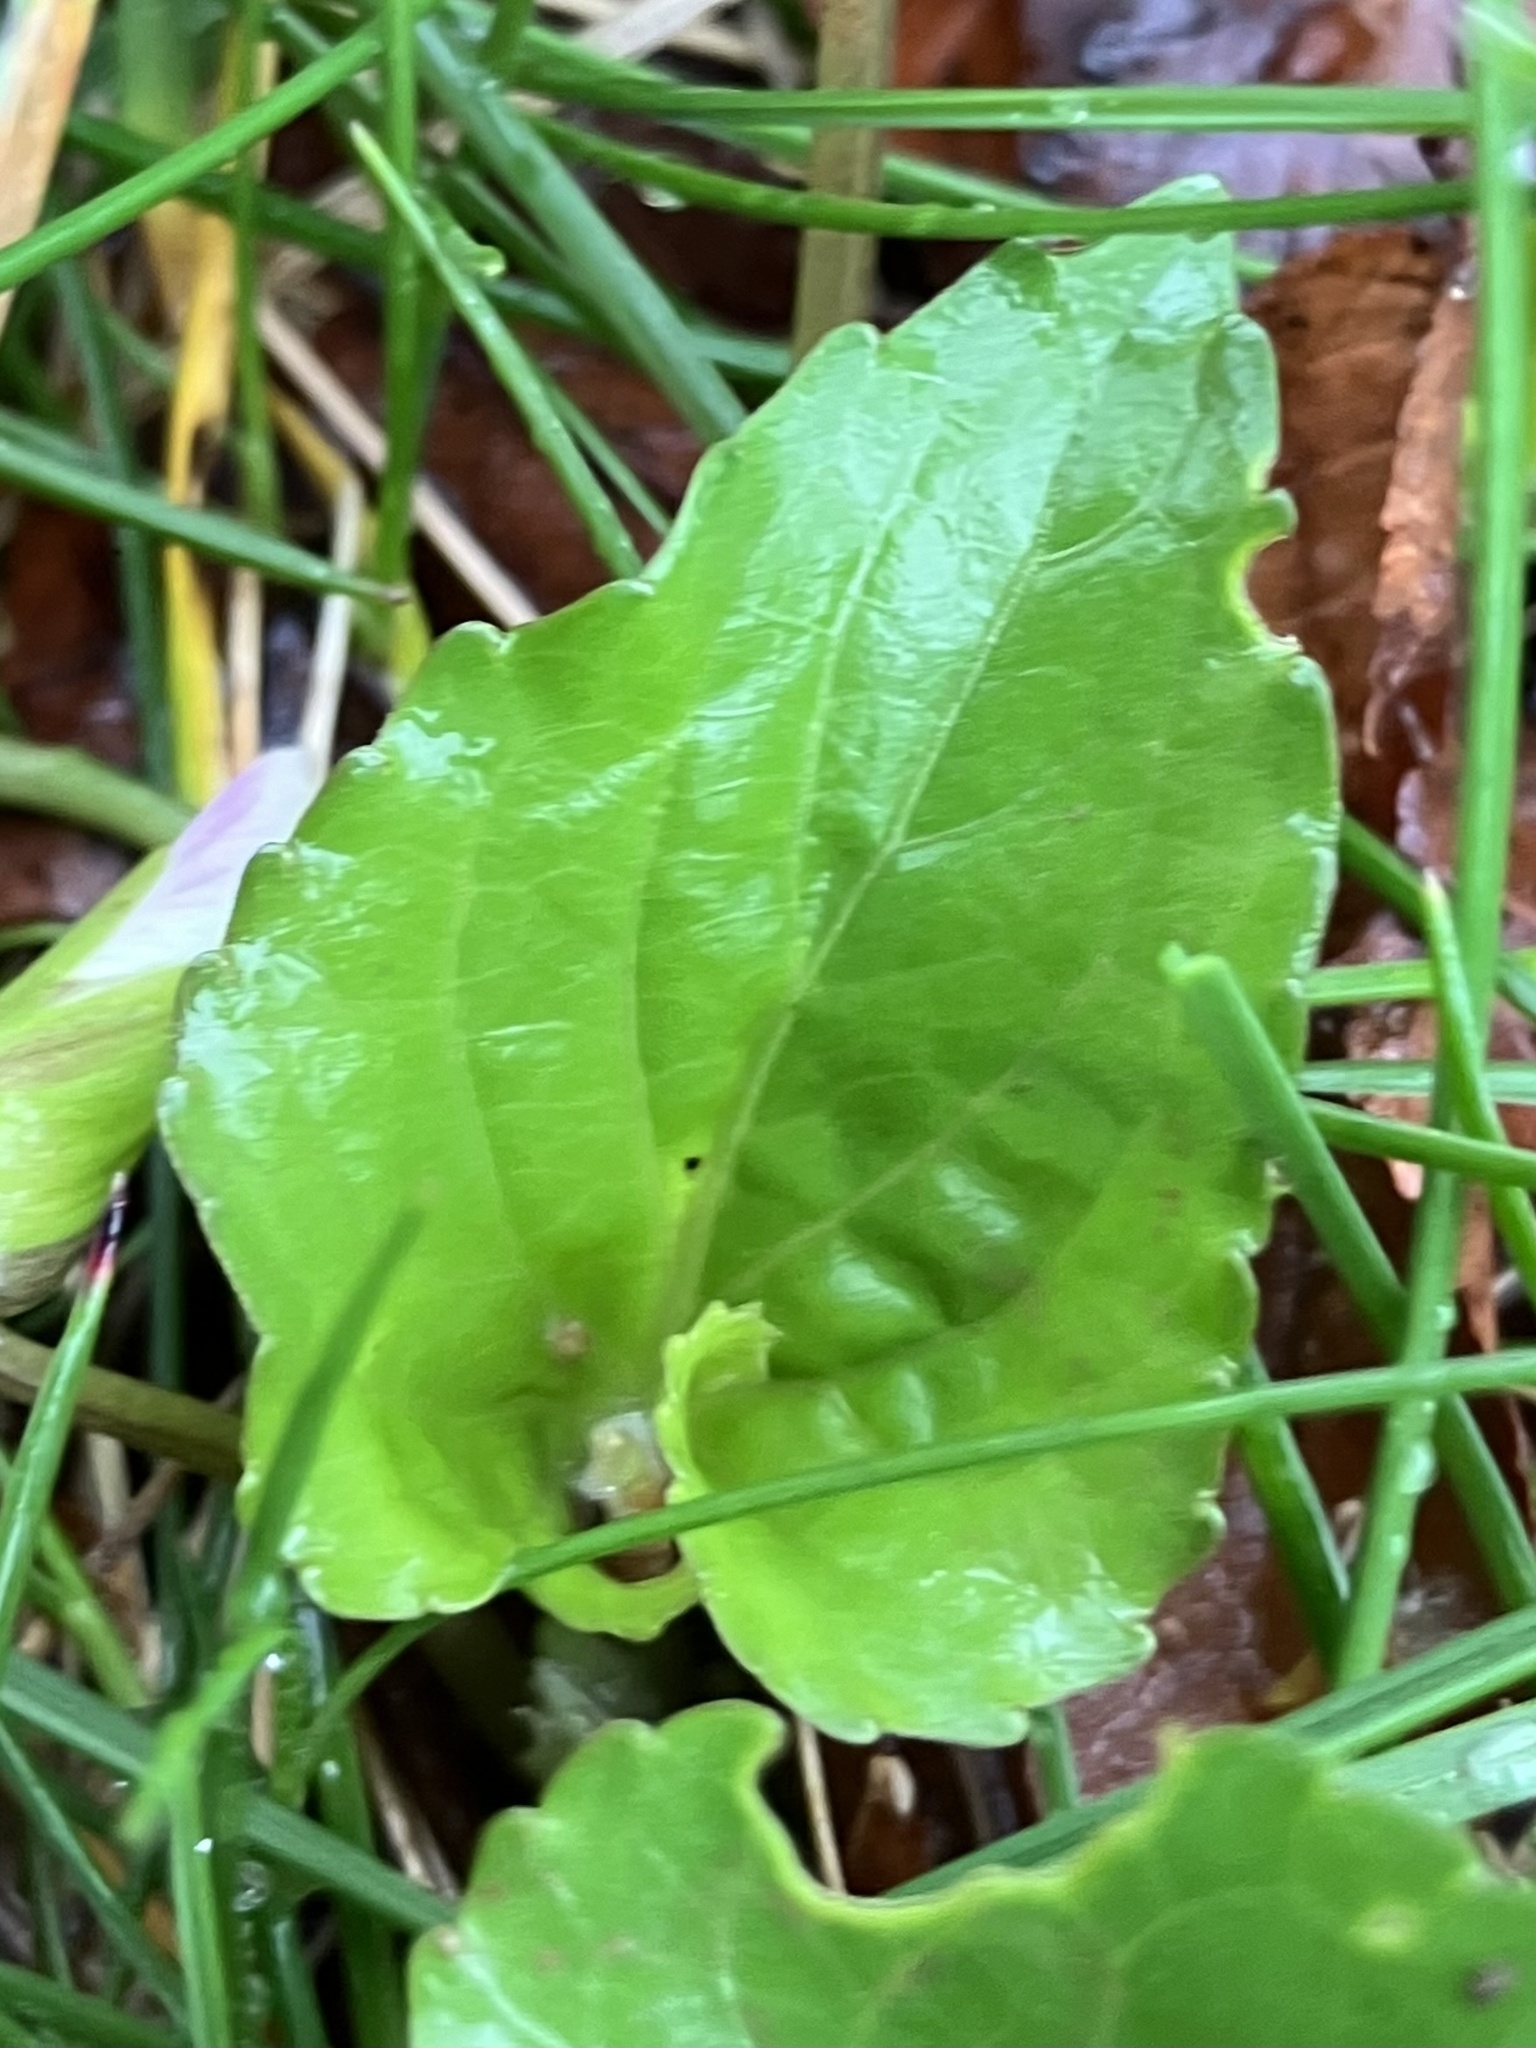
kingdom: Plantae
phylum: Tracheophyta
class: Magnoliopsida
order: Malpighiales
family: Violaceae
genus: Viola
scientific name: Viola communis
